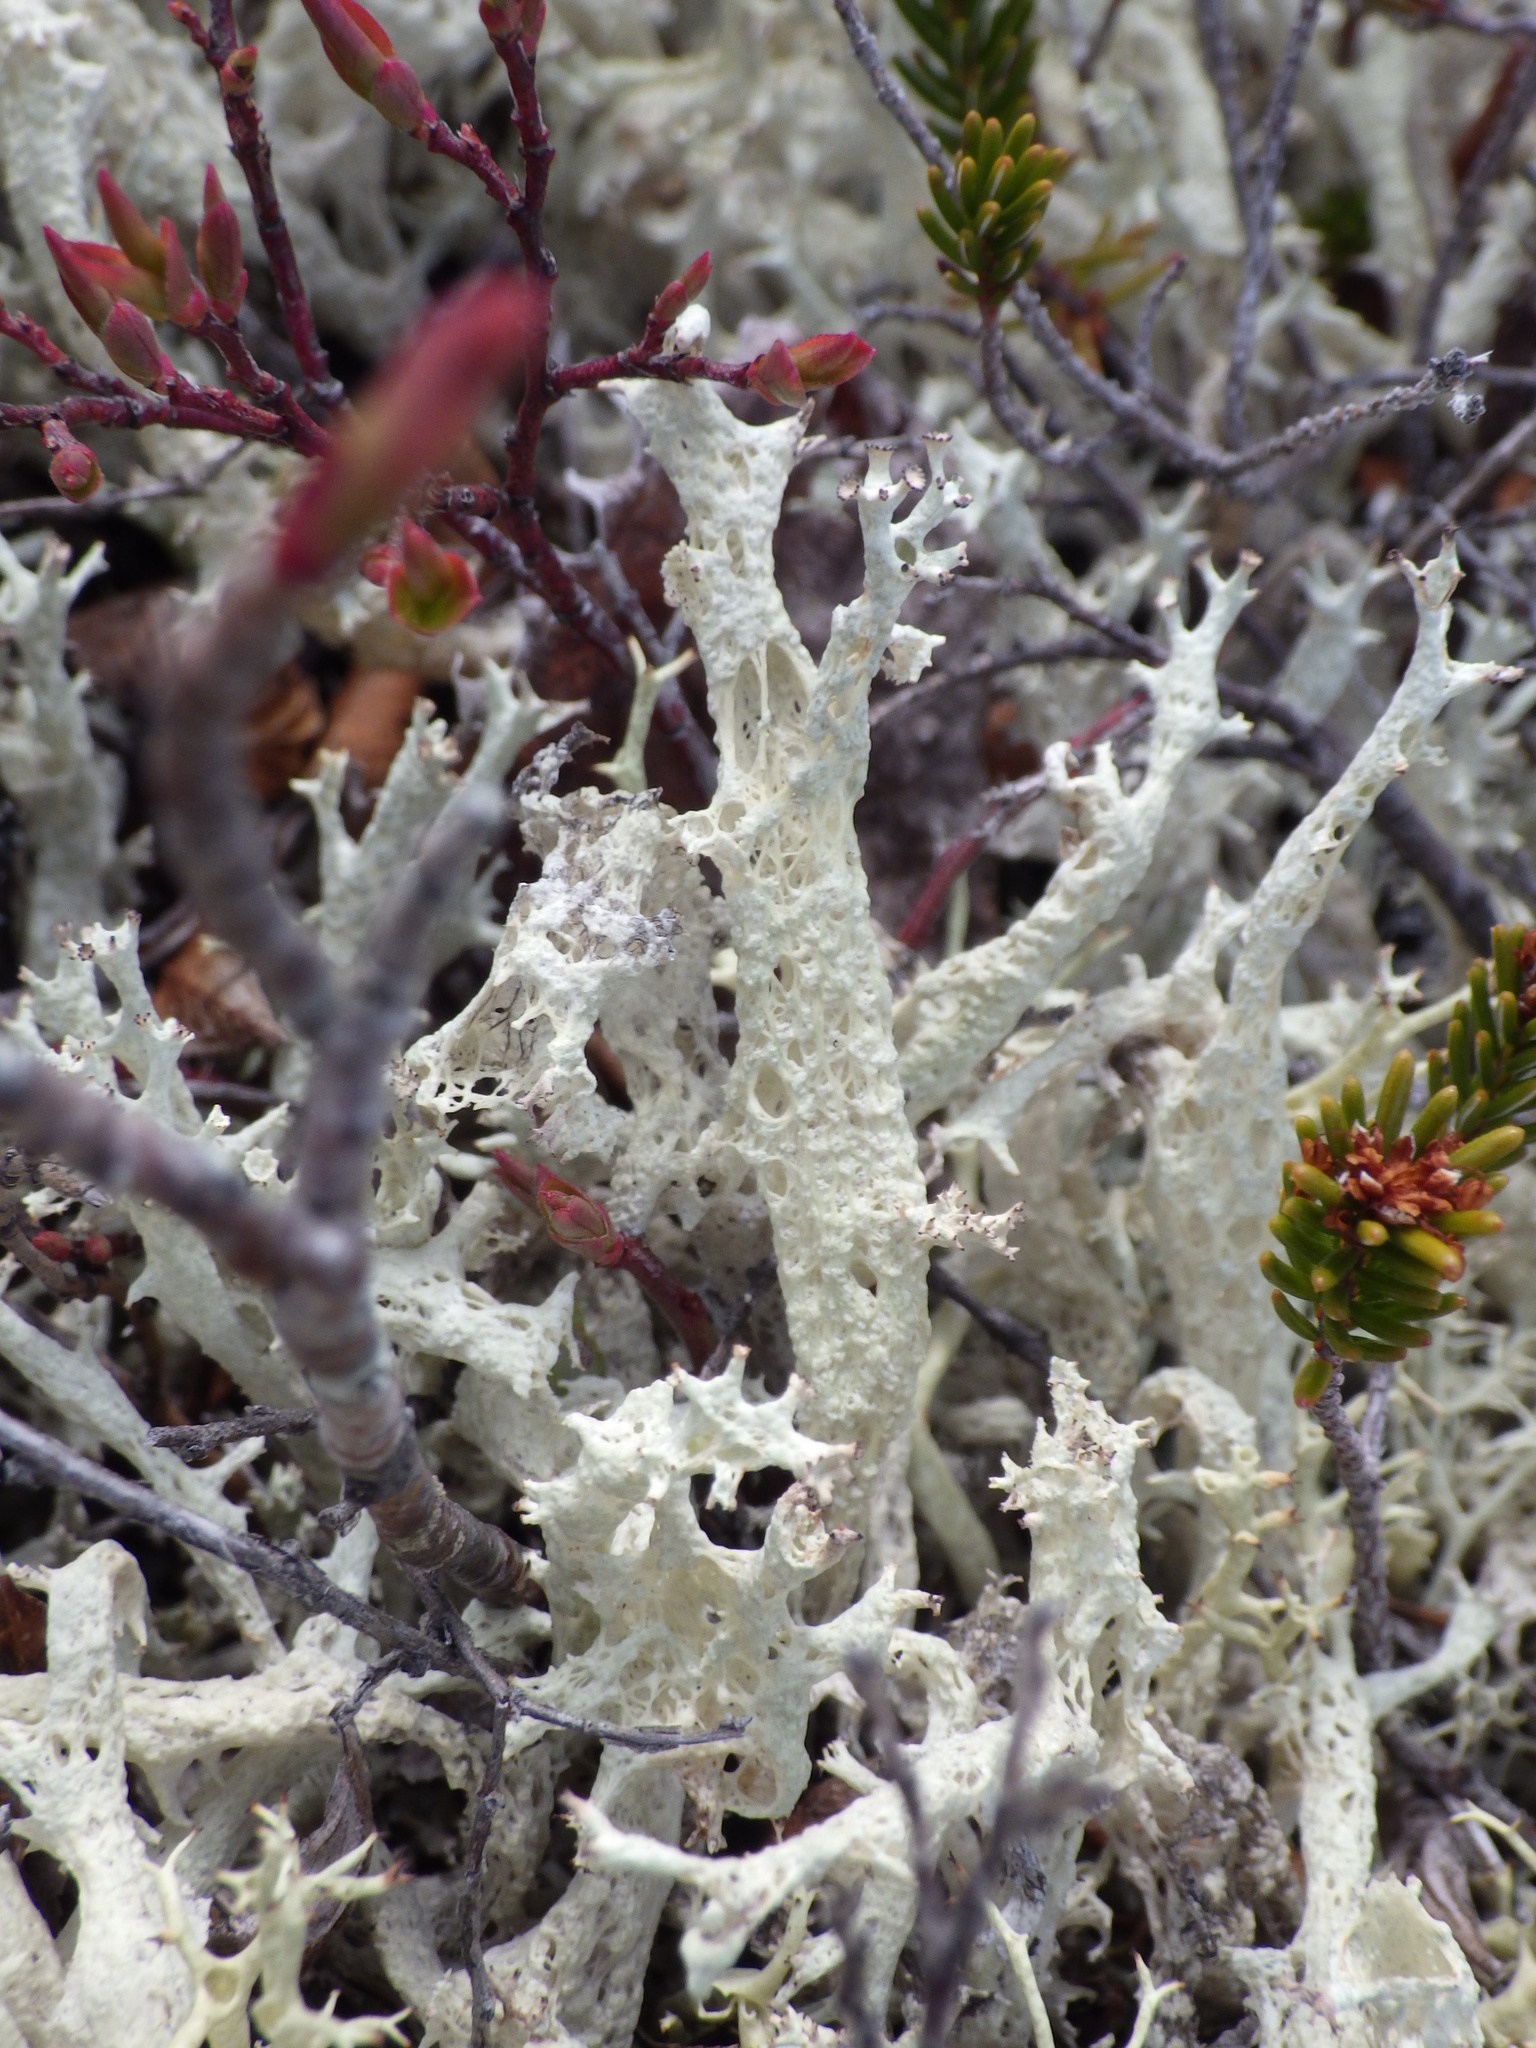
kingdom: Fungi
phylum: Ascomycota
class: Lecanoromycetes
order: Lecanorales
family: Cladoniaceae
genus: Cladonia
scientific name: Cladonia boryi
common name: Fishnet cladonia
